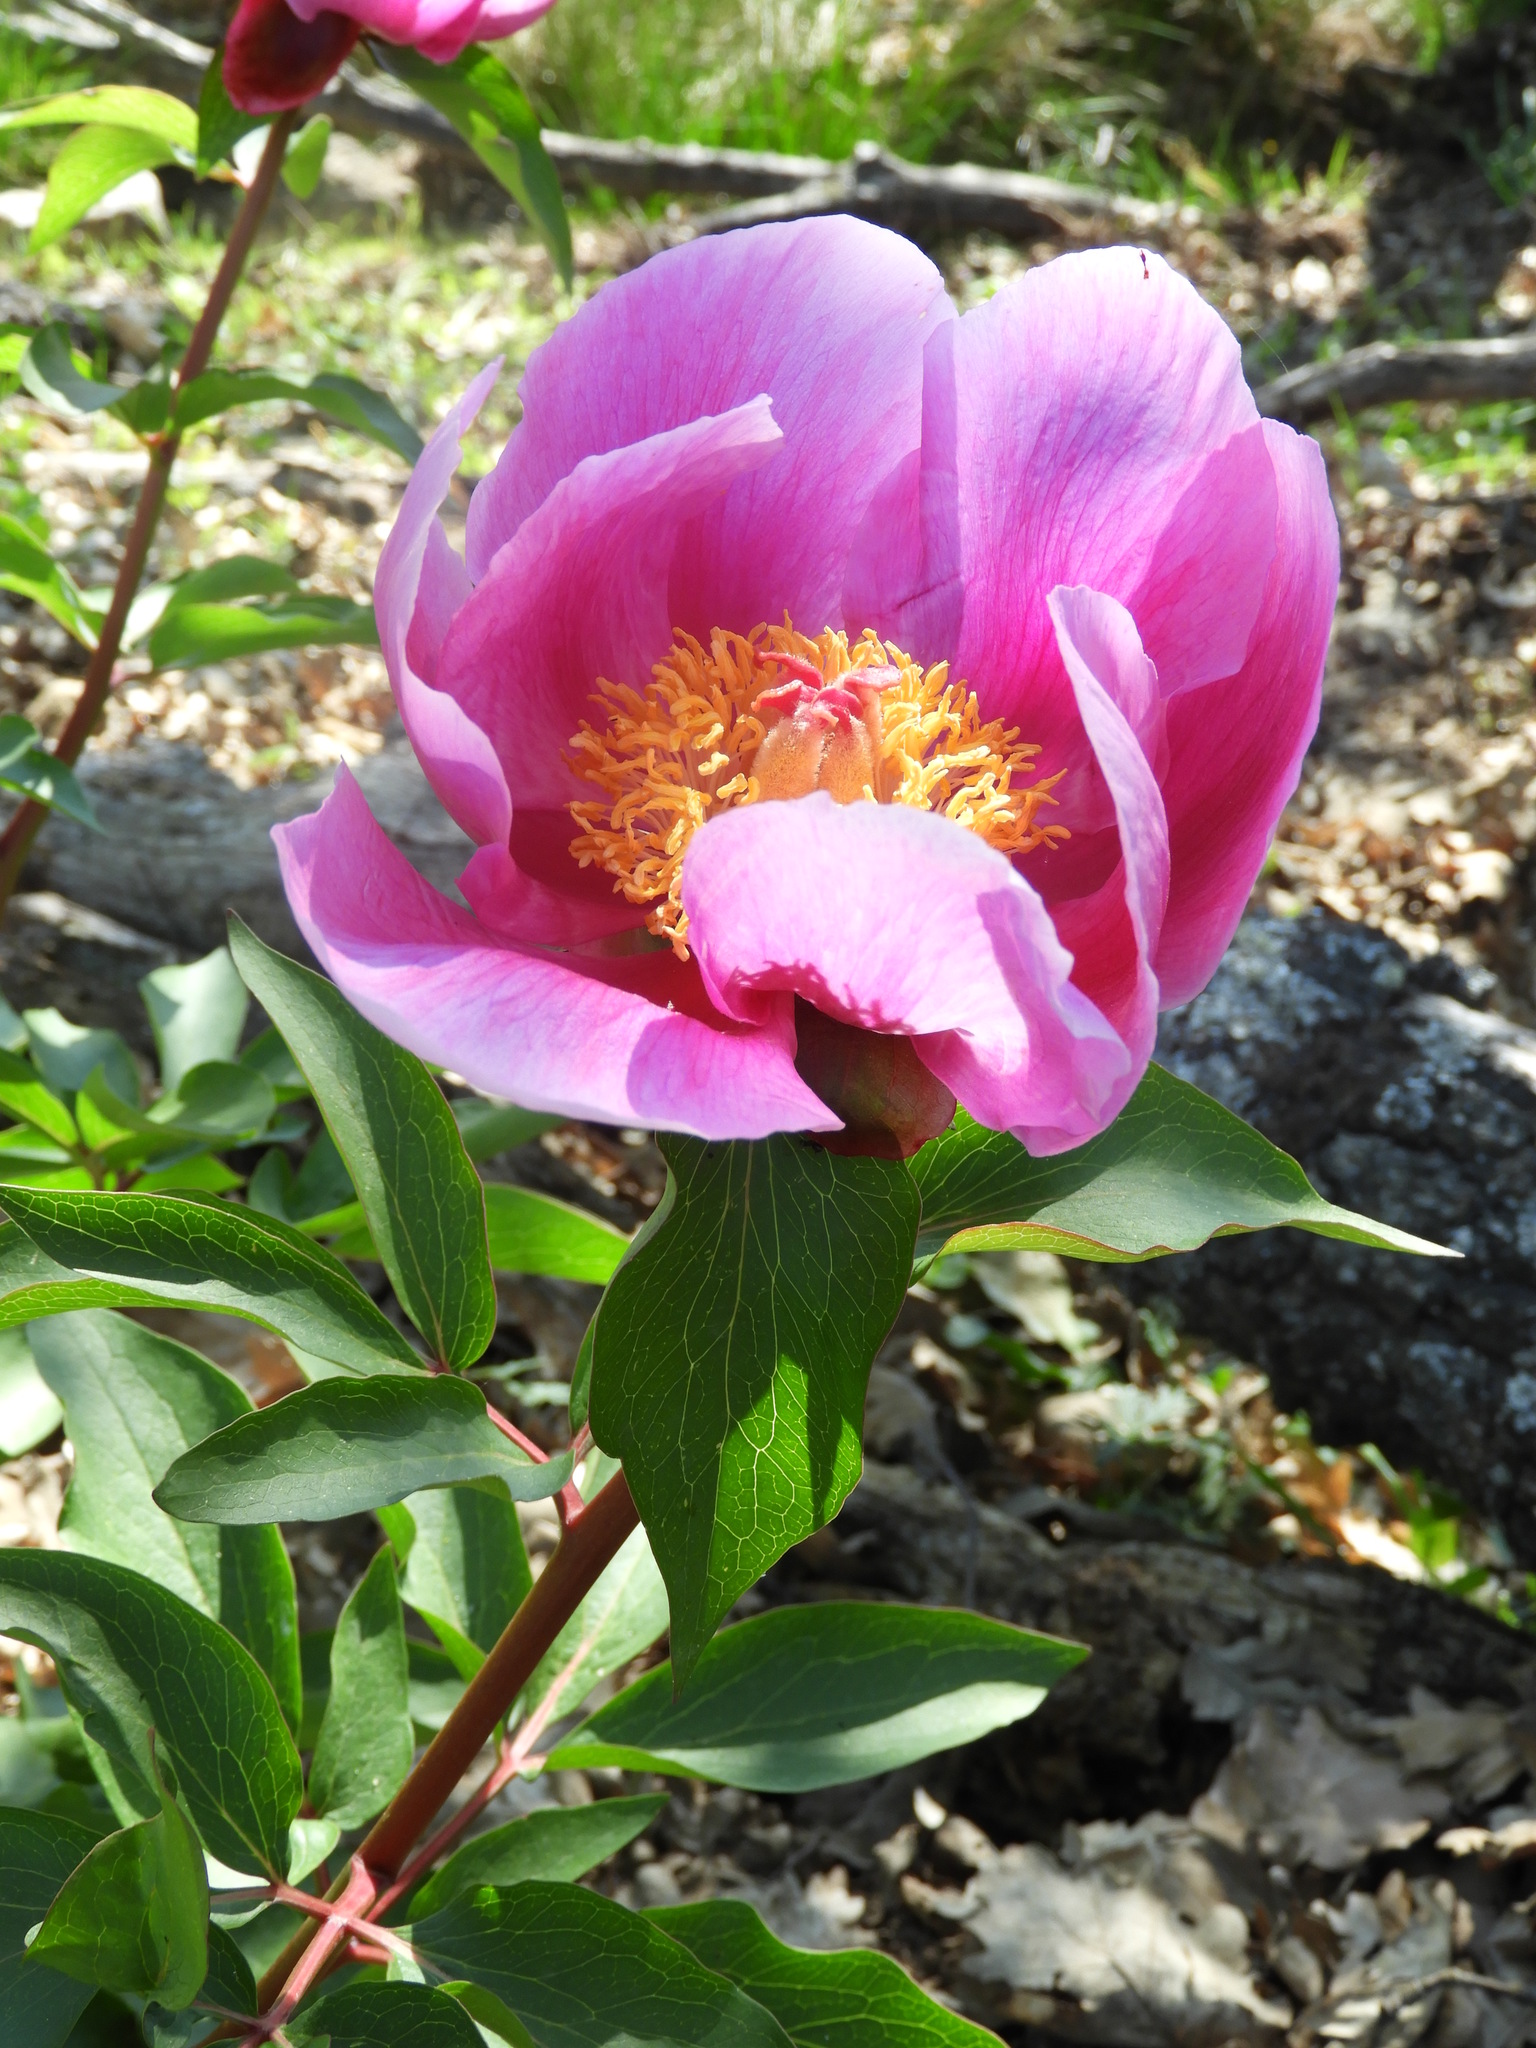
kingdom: Plantae
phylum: Tracheophyta
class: Magnoliopsida
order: Saxifragales
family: Paeoniaceae
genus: Paeonia
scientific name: Paeonia broteroi
